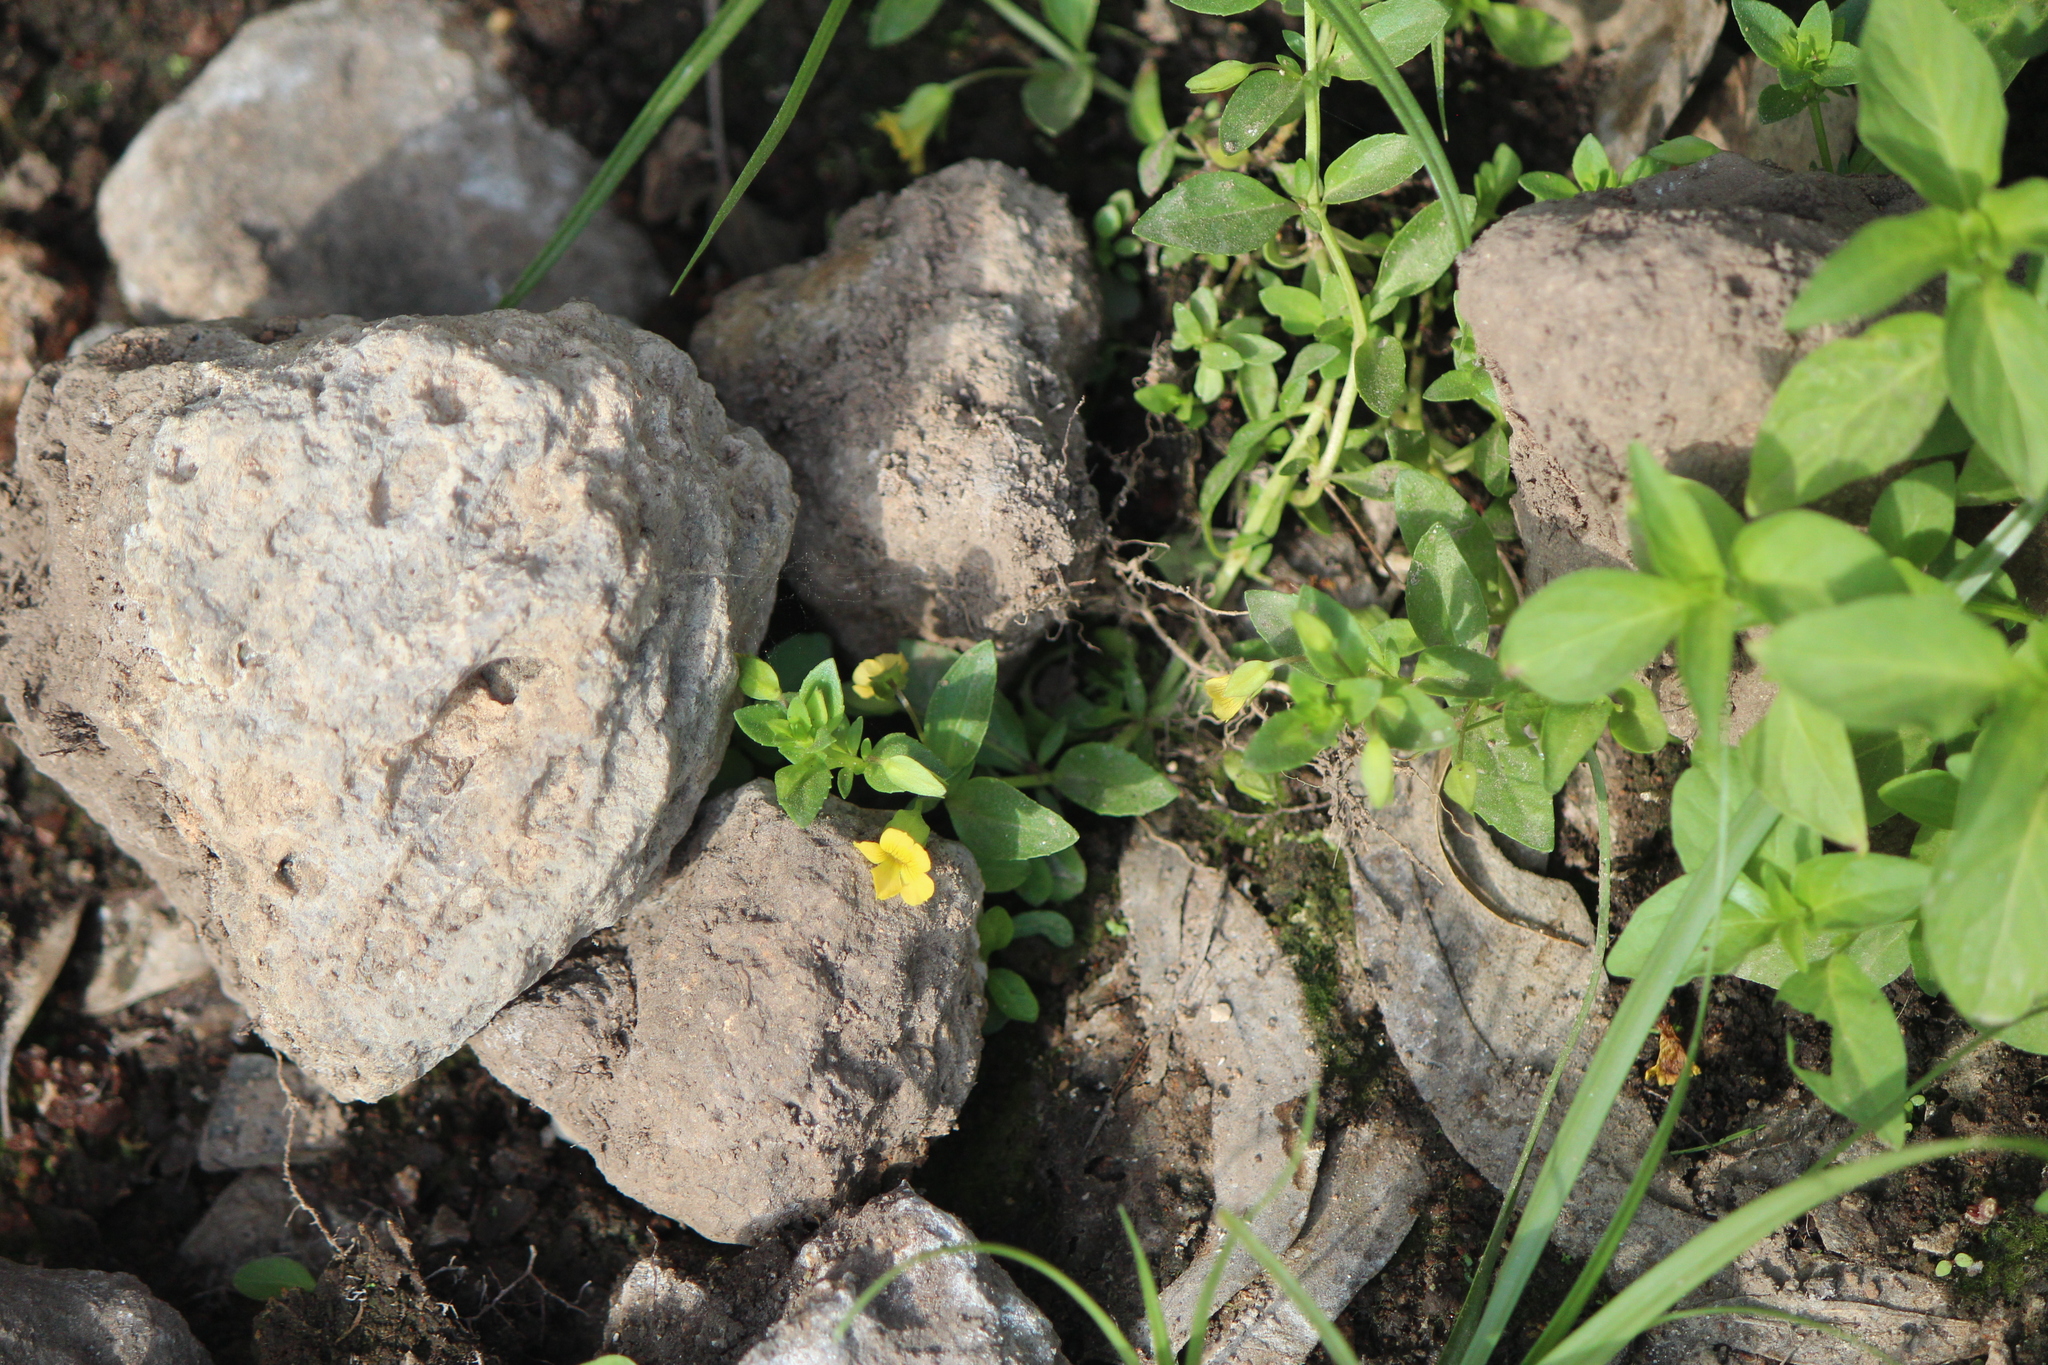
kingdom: Plantae
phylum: Tracheophyta
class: Magnoliopsida
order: Lamiales
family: Plantaginaceae
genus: Mecardonia
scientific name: Mecardonia procumbens
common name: Baby jump-up
